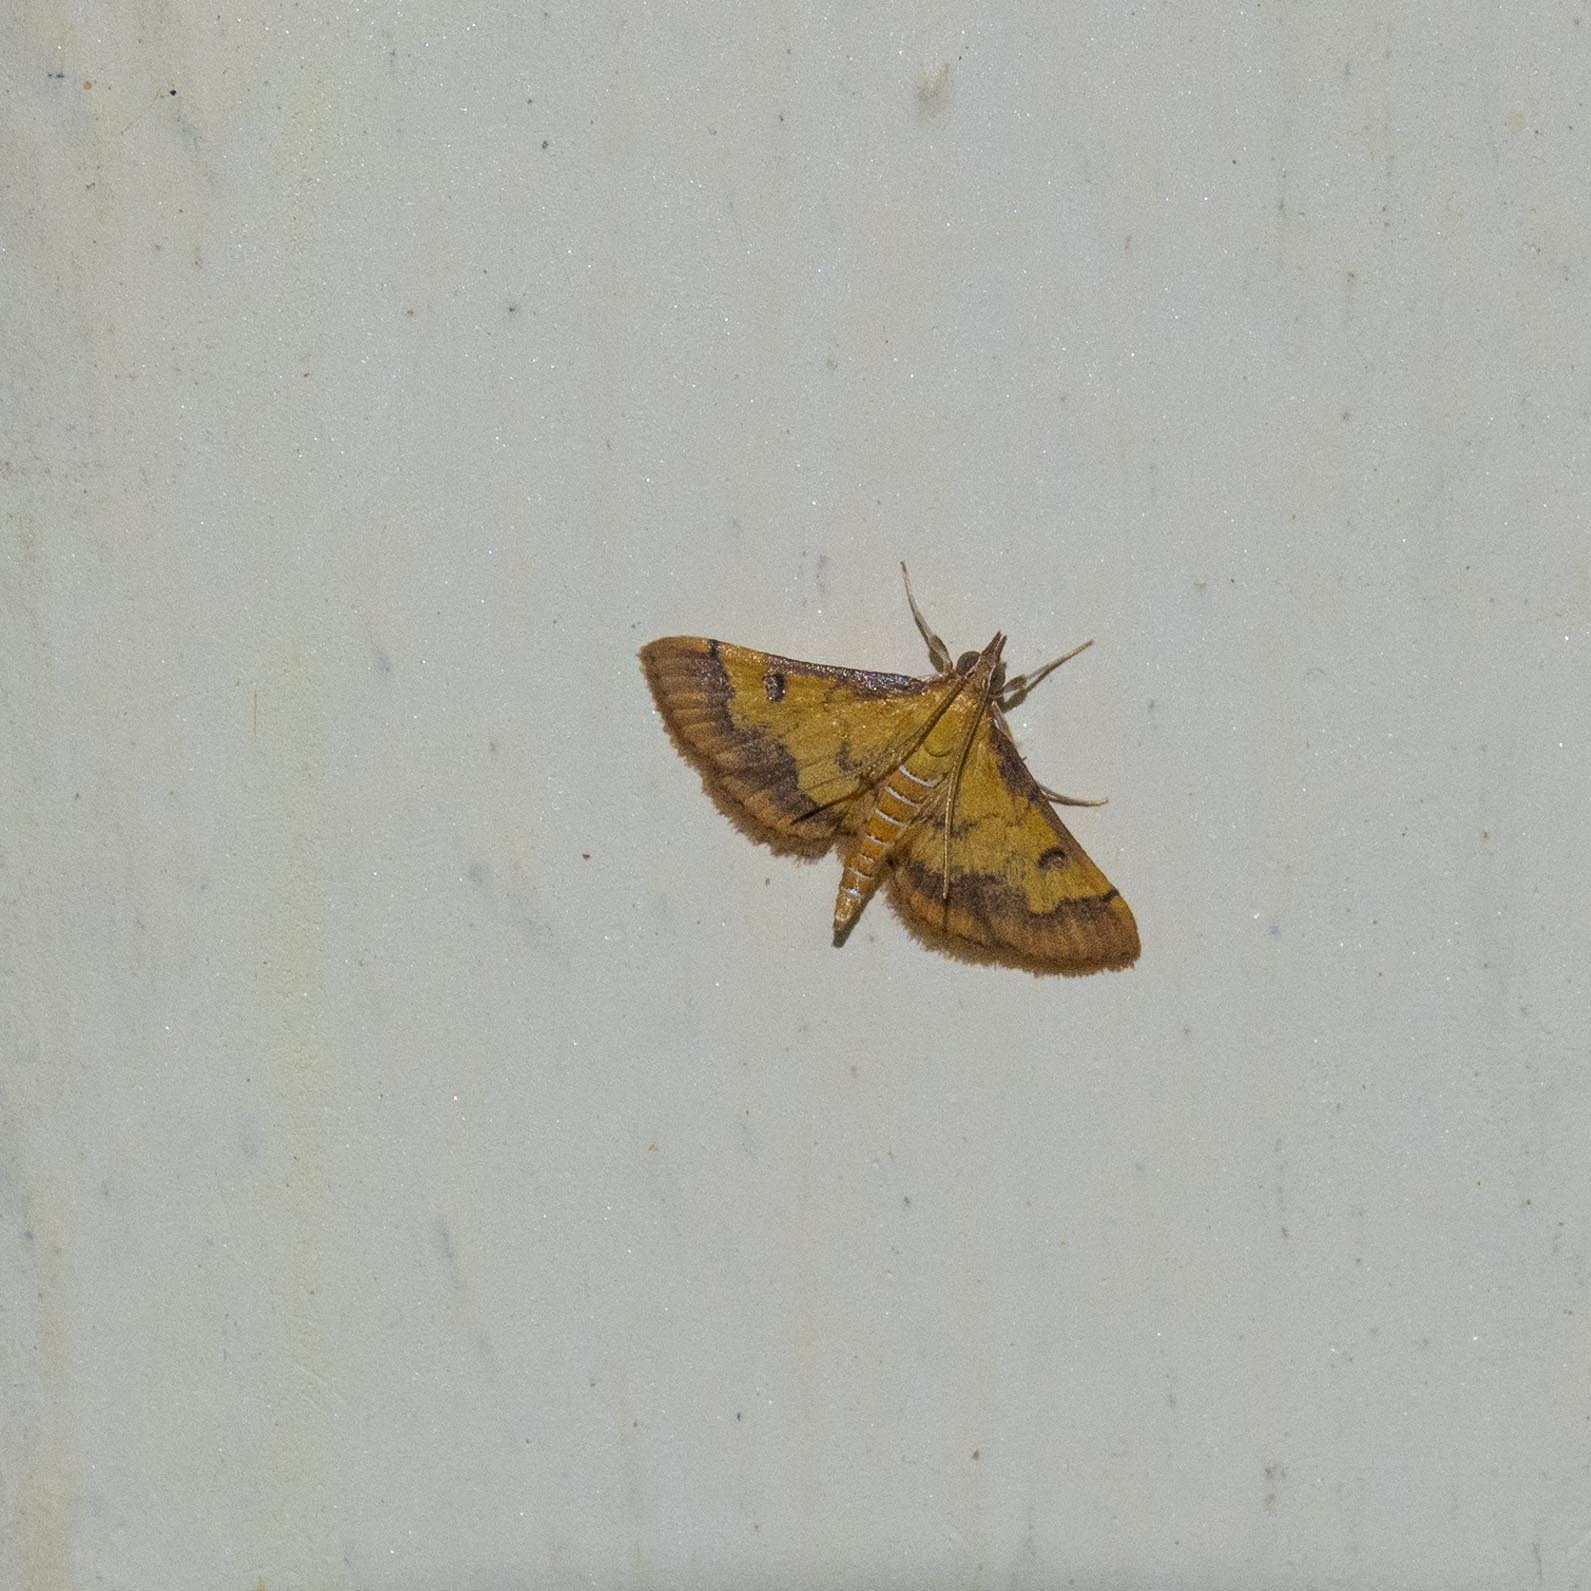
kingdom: Animalia
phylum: Arthropoda
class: Insecta
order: Lepidoptera
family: Crambidae
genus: Ischnurges
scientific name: Ischnurges luteomarginalis
